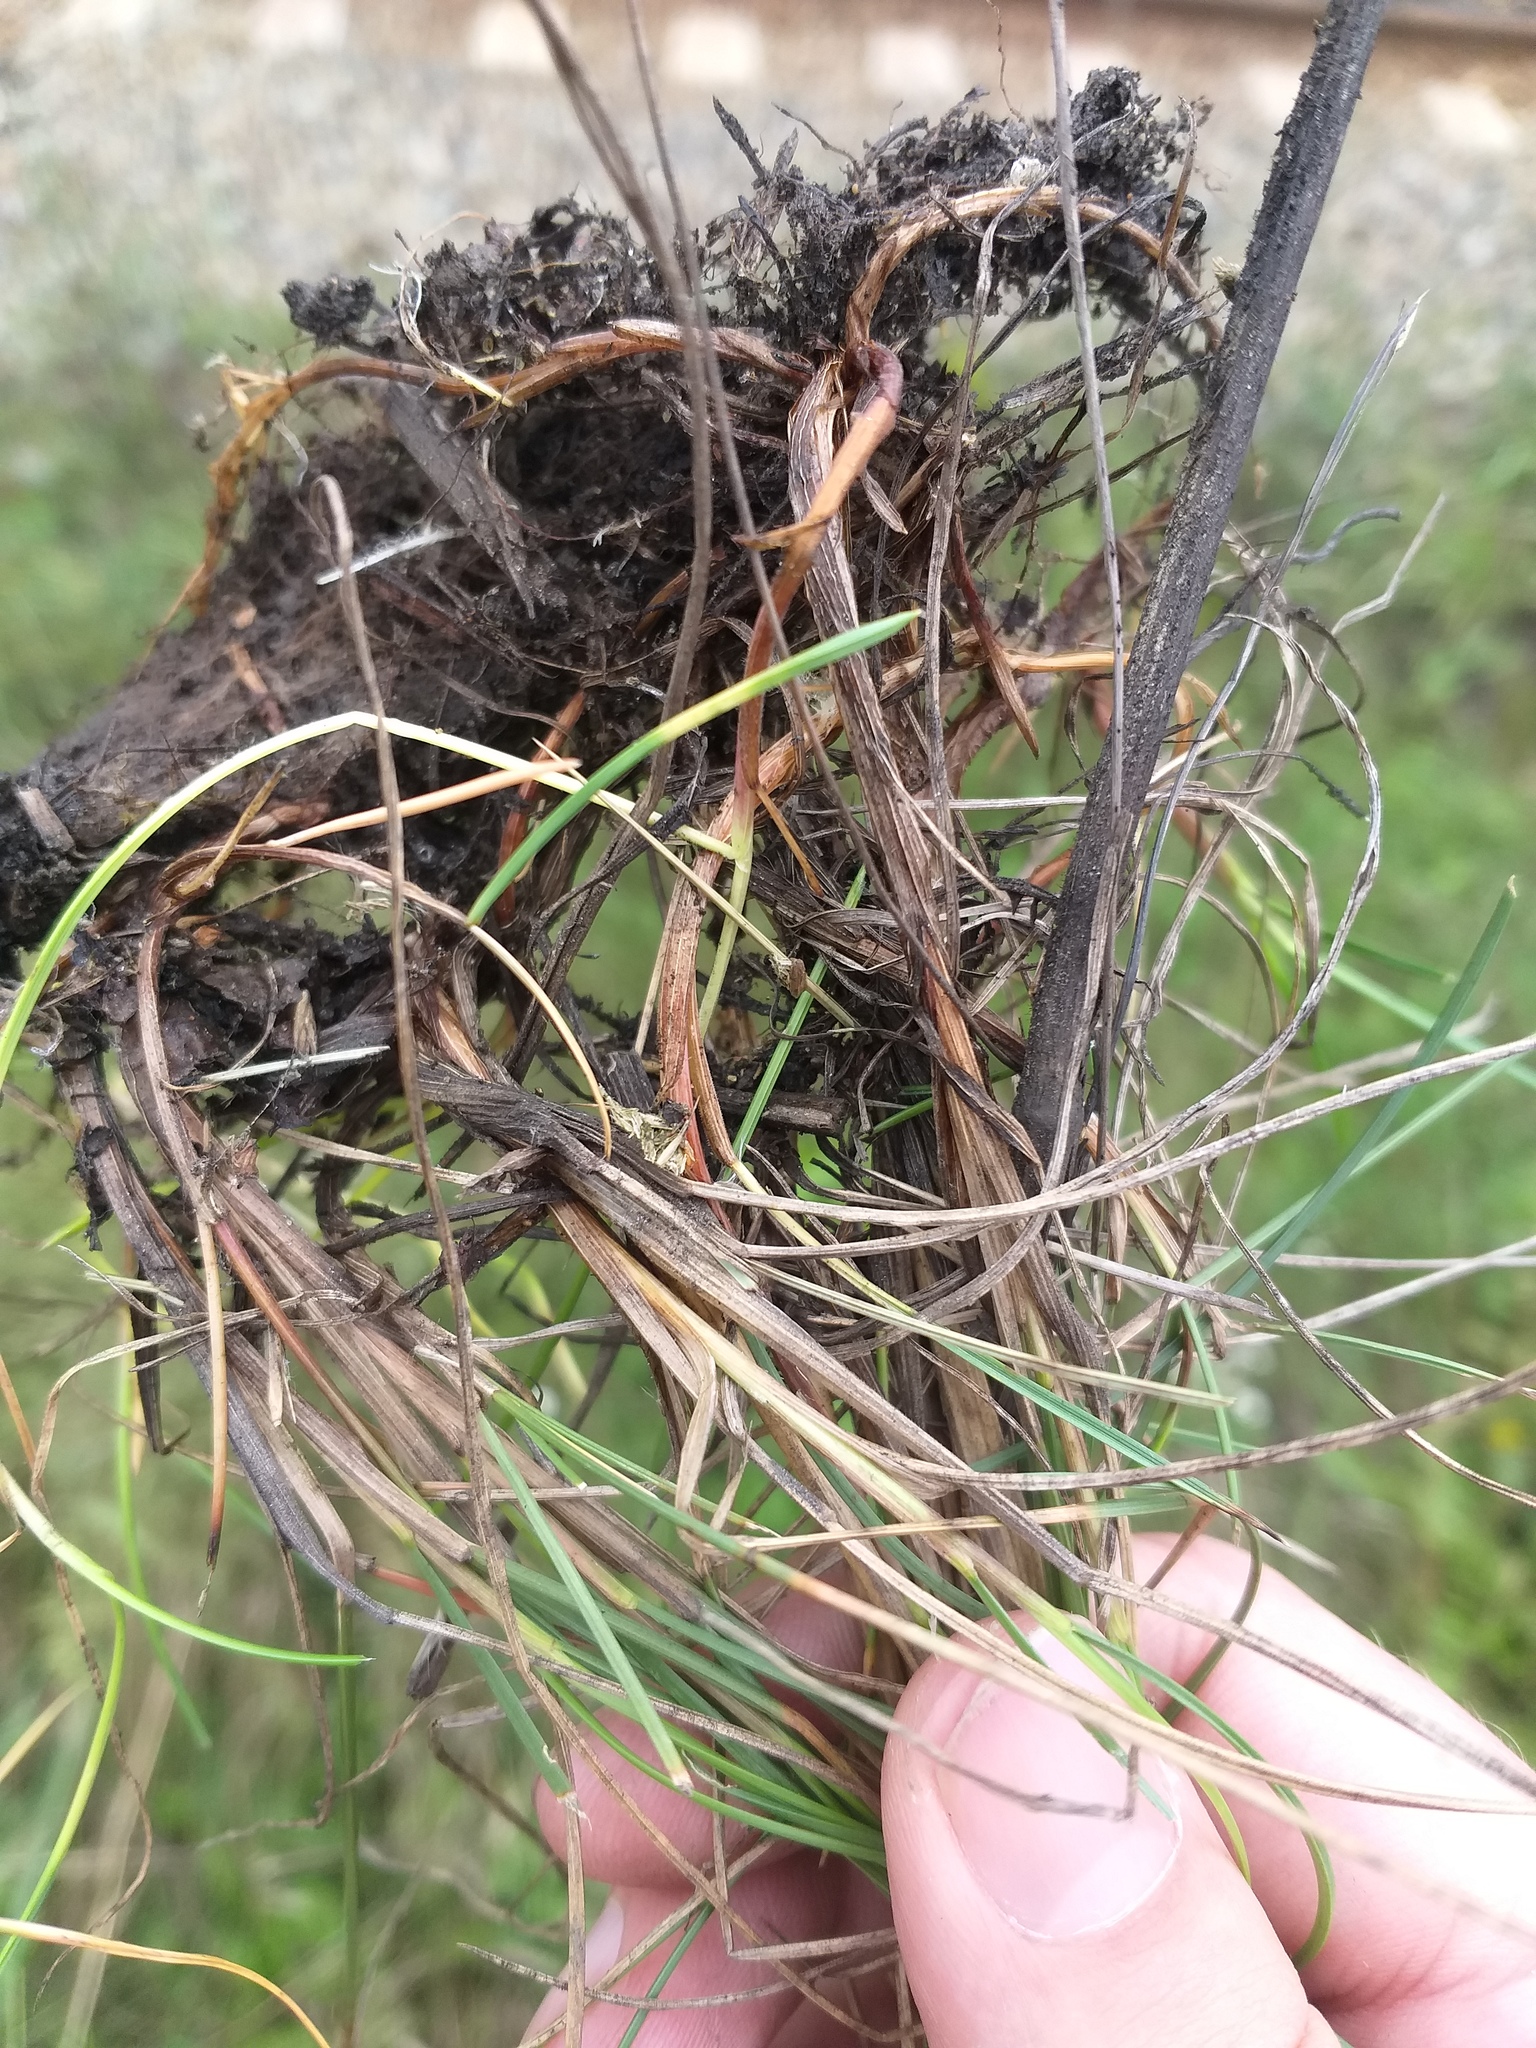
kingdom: Plantae
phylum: Tracheophyta
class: Liliopsida
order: Poales
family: Poaceae
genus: Festuca
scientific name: Festuca rubra
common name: Red fescue
